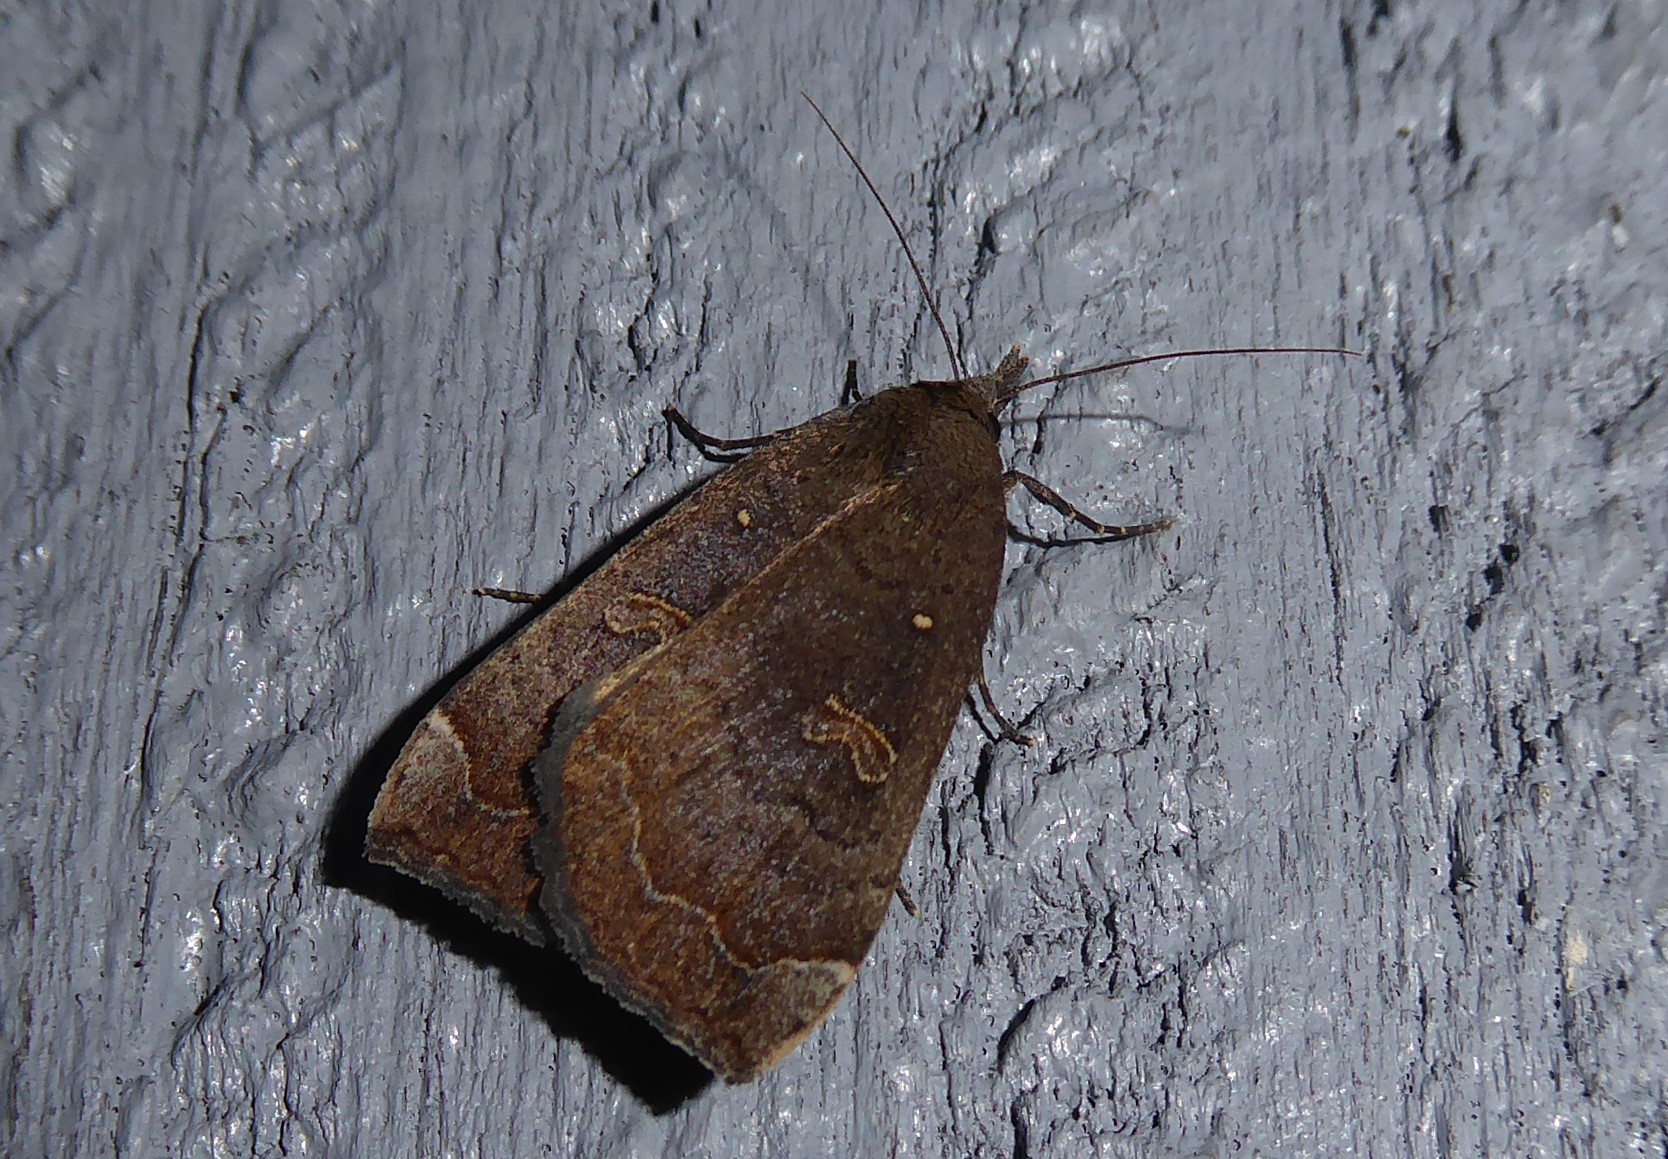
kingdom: Animalia
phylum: Arthropoda
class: Insecta
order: Lepidoptera
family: Erebidae
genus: Rhapsa
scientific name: Rhapsa scotosialis
